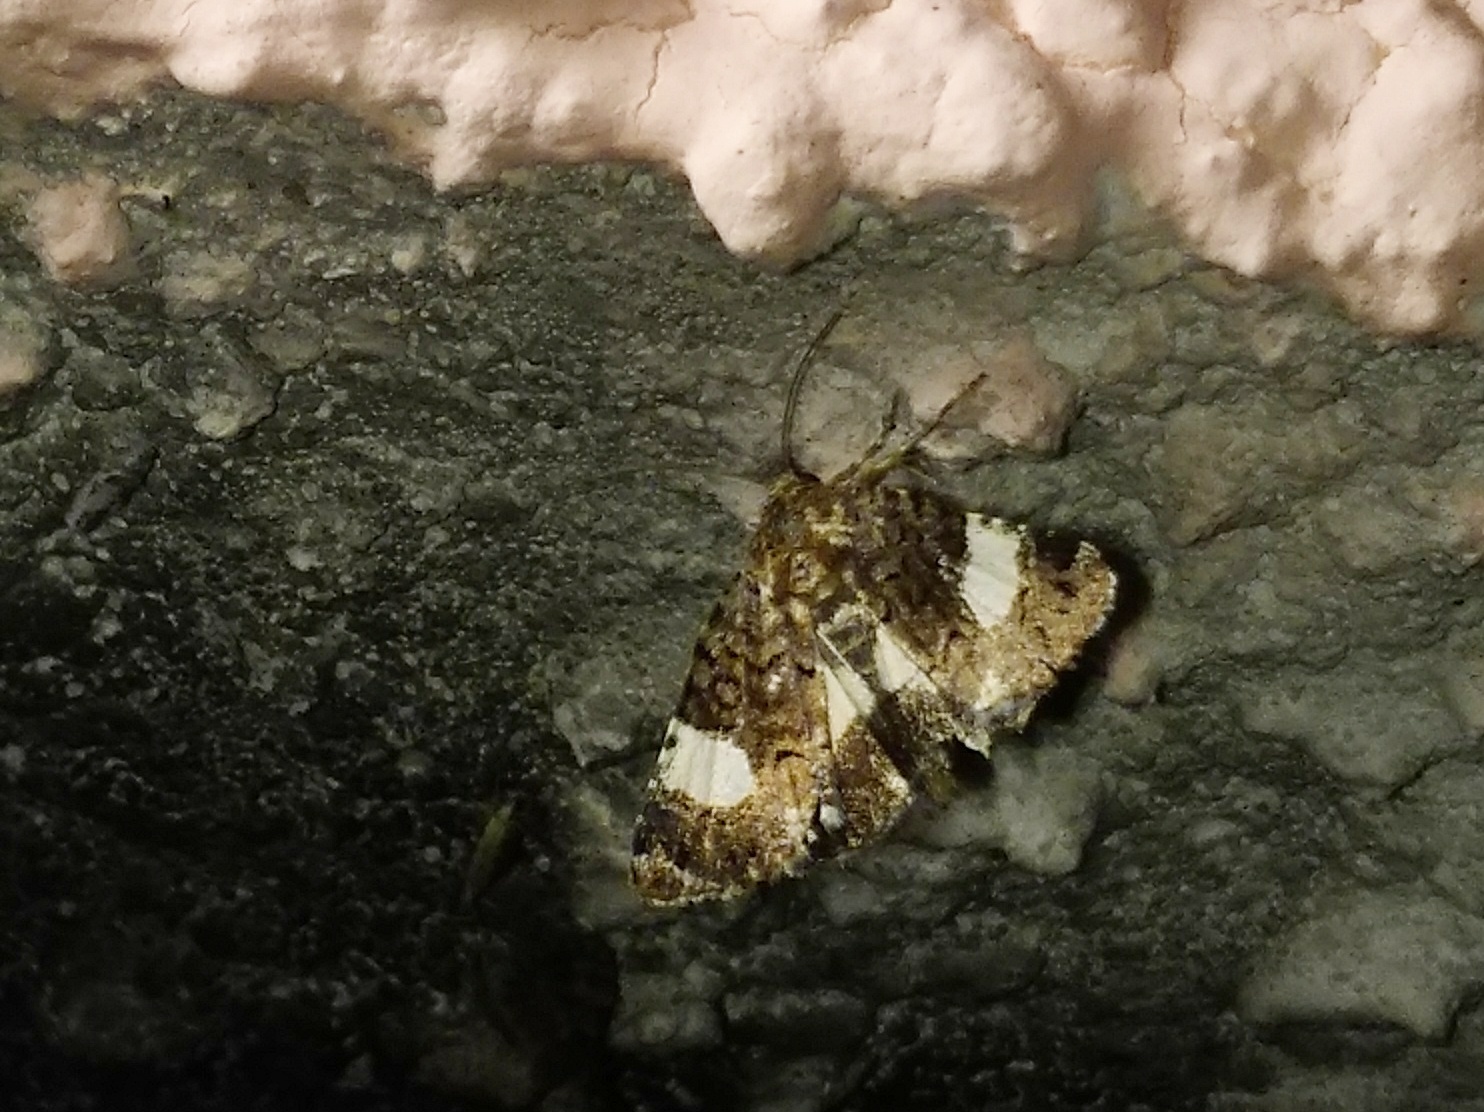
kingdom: Animalia
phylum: Arthropoda
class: Insecta
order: Lepidoptera
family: Erebidae
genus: Tyta
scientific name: Tyta luctuosa
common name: Four-spotted
